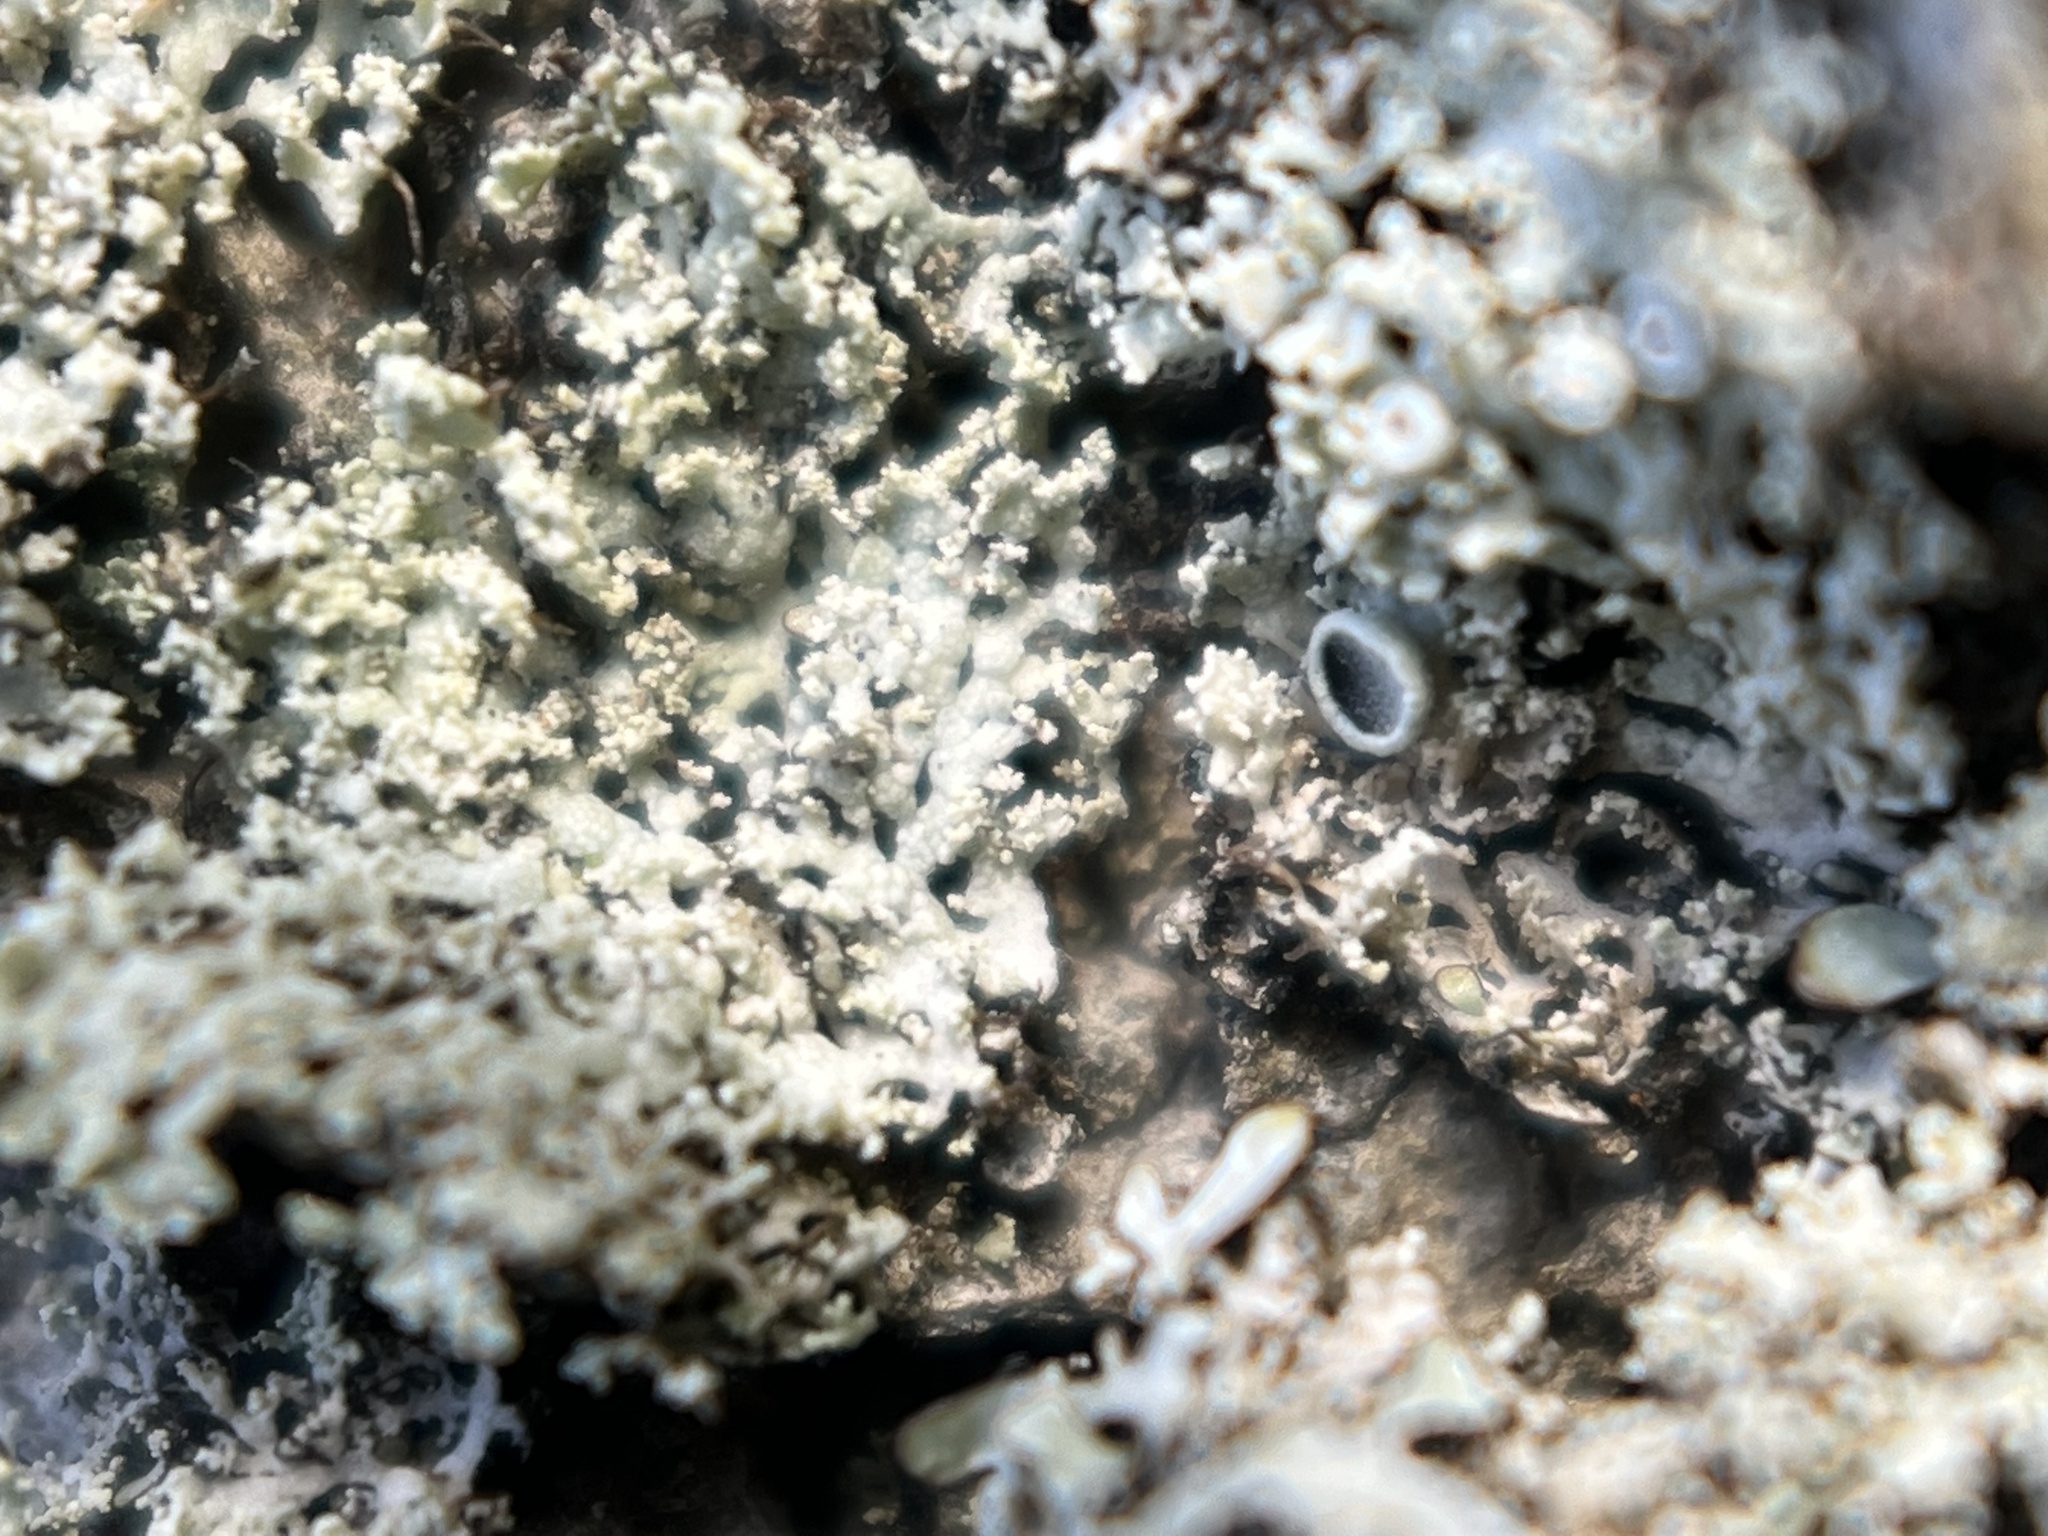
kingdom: Fungi
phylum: Ascomycota
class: Lecanoromycetes
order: Caliciales
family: Physciaceae
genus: Physcia
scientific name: Physcia millegrana
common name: Rosette lichen
